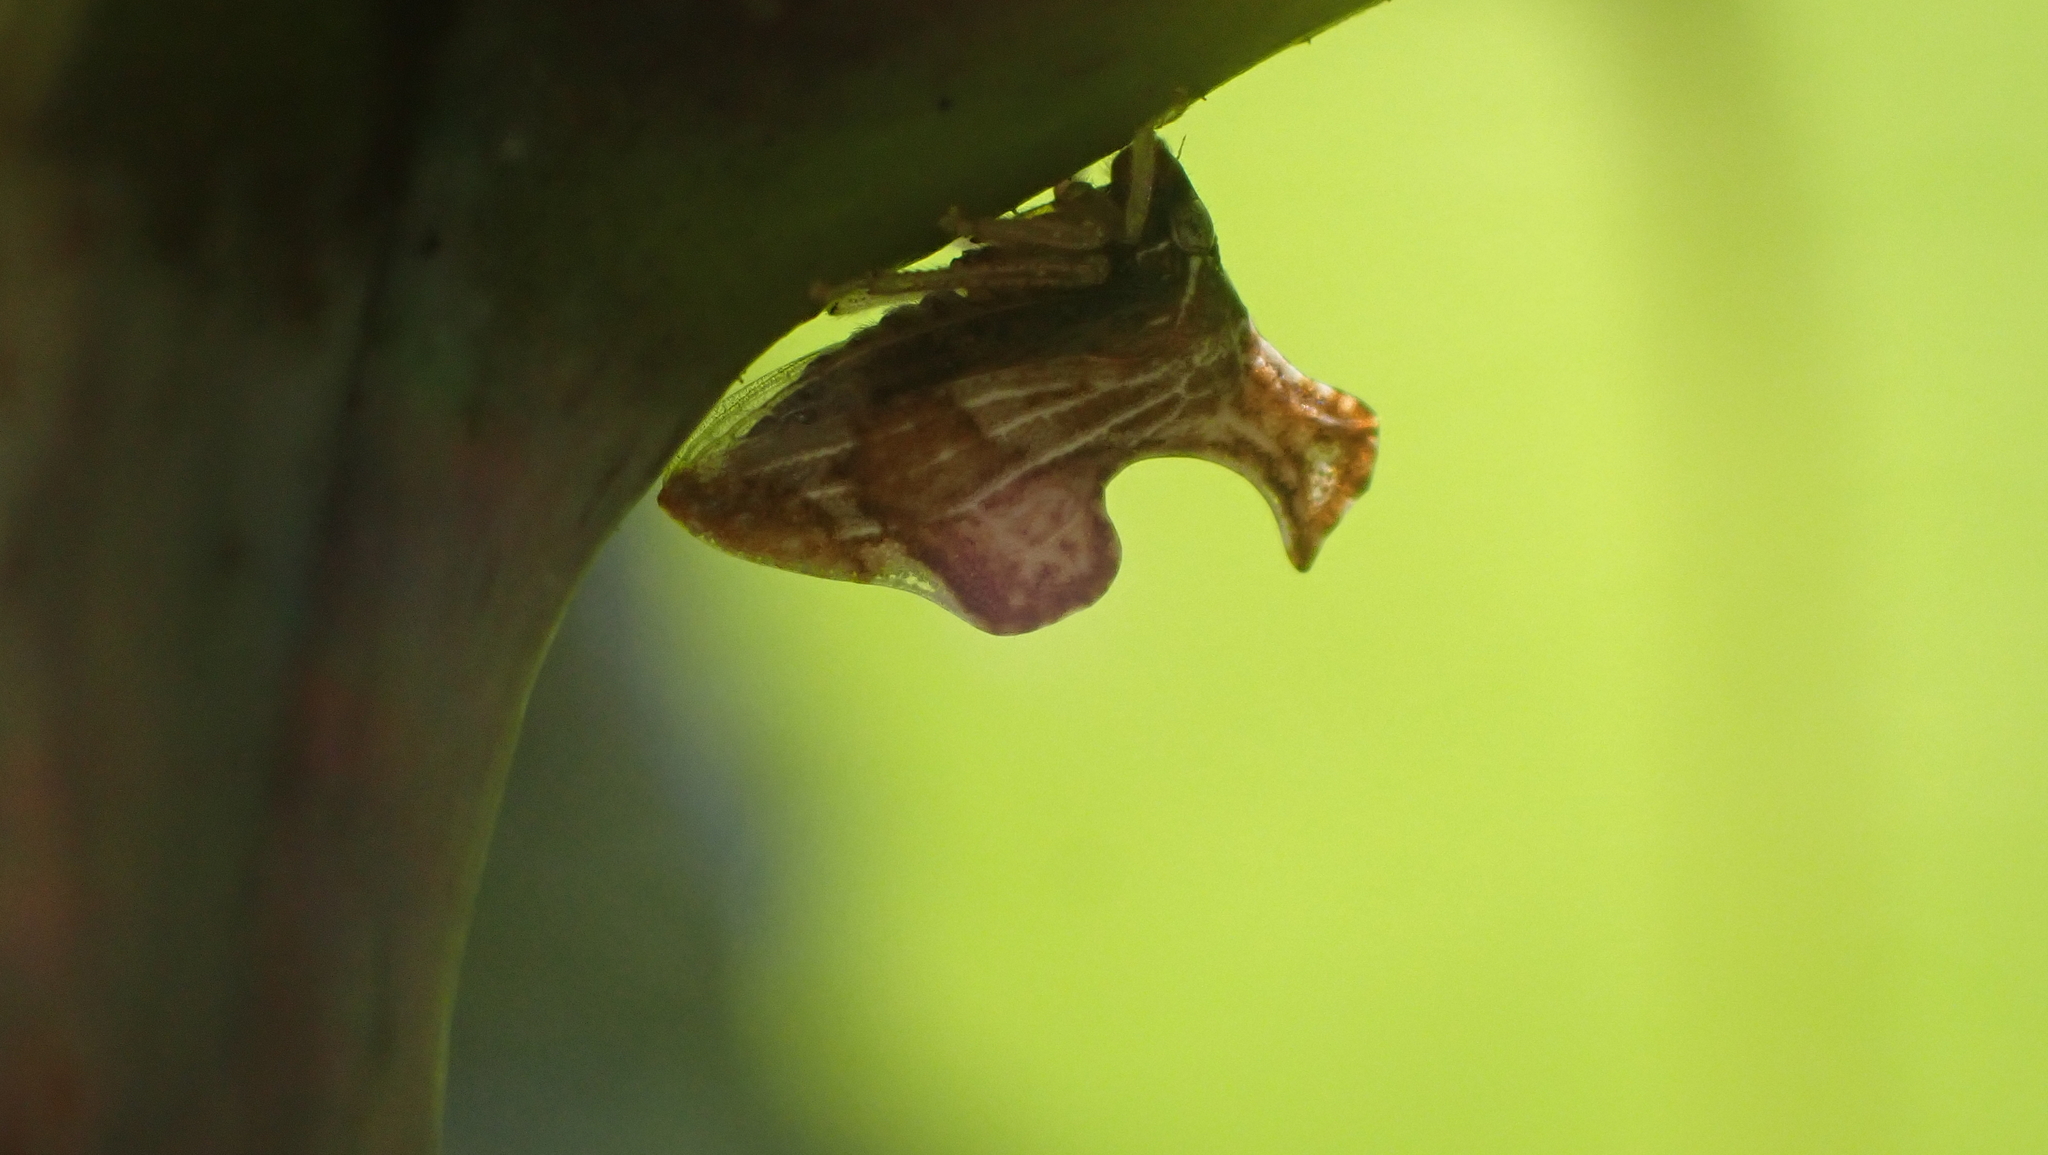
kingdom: Animalia
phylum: Arthropoda
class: Insecta
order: Hemiptera
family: Membracidae
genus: Entylia
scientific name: Entylia carinata
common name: Keeled treehopper
